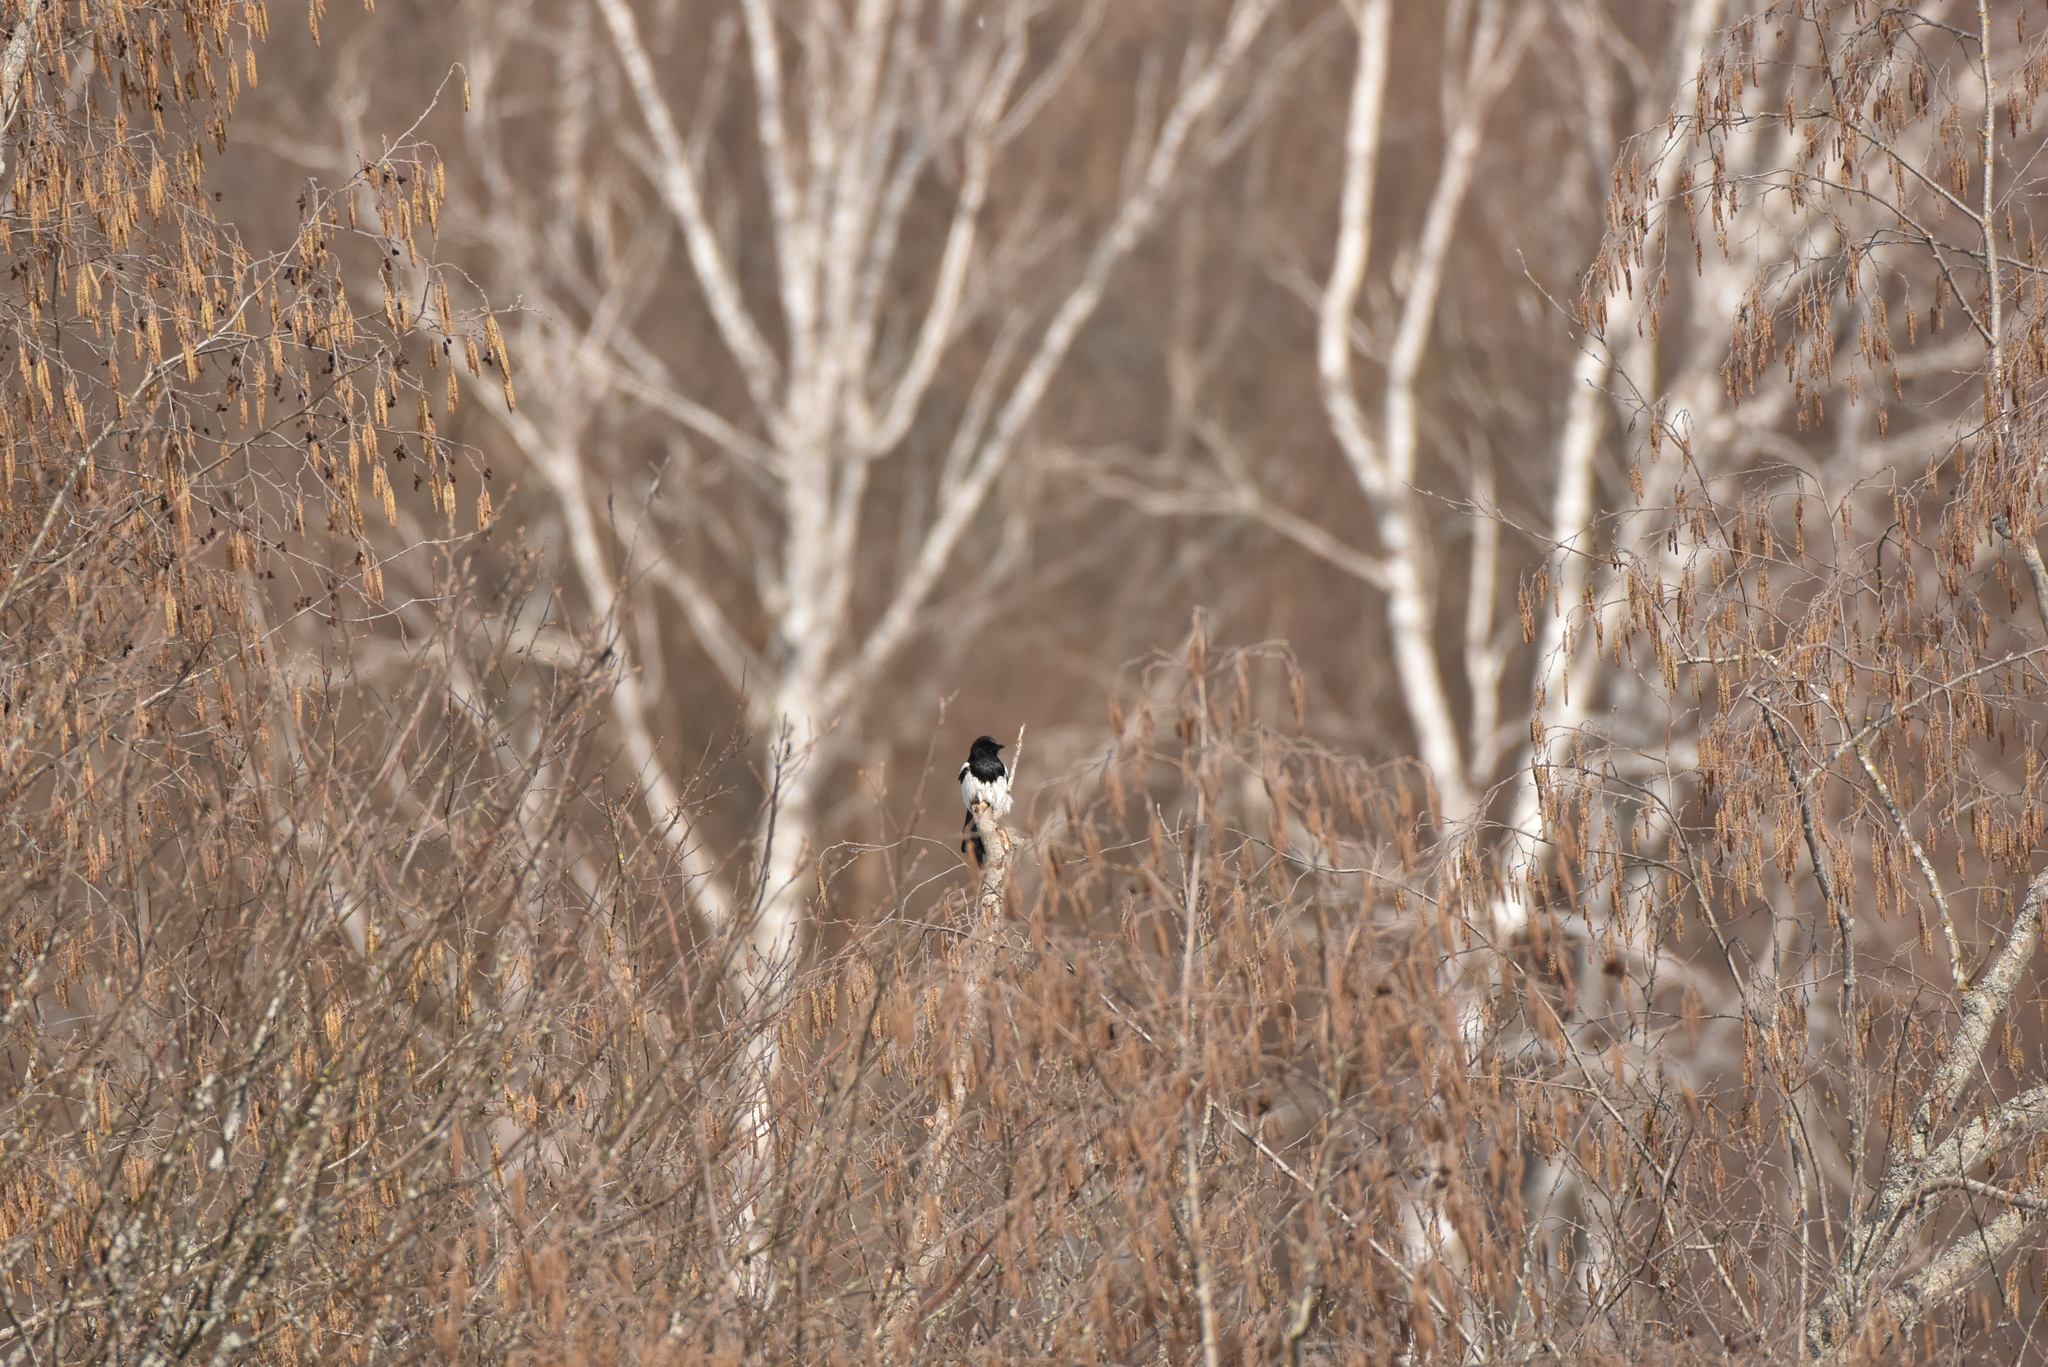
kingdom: Animalia
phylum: Chordata
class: Aves
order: Passeriformes
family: Corvidae
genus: Pica
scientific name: Pica pica
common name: Eurasian magpie
